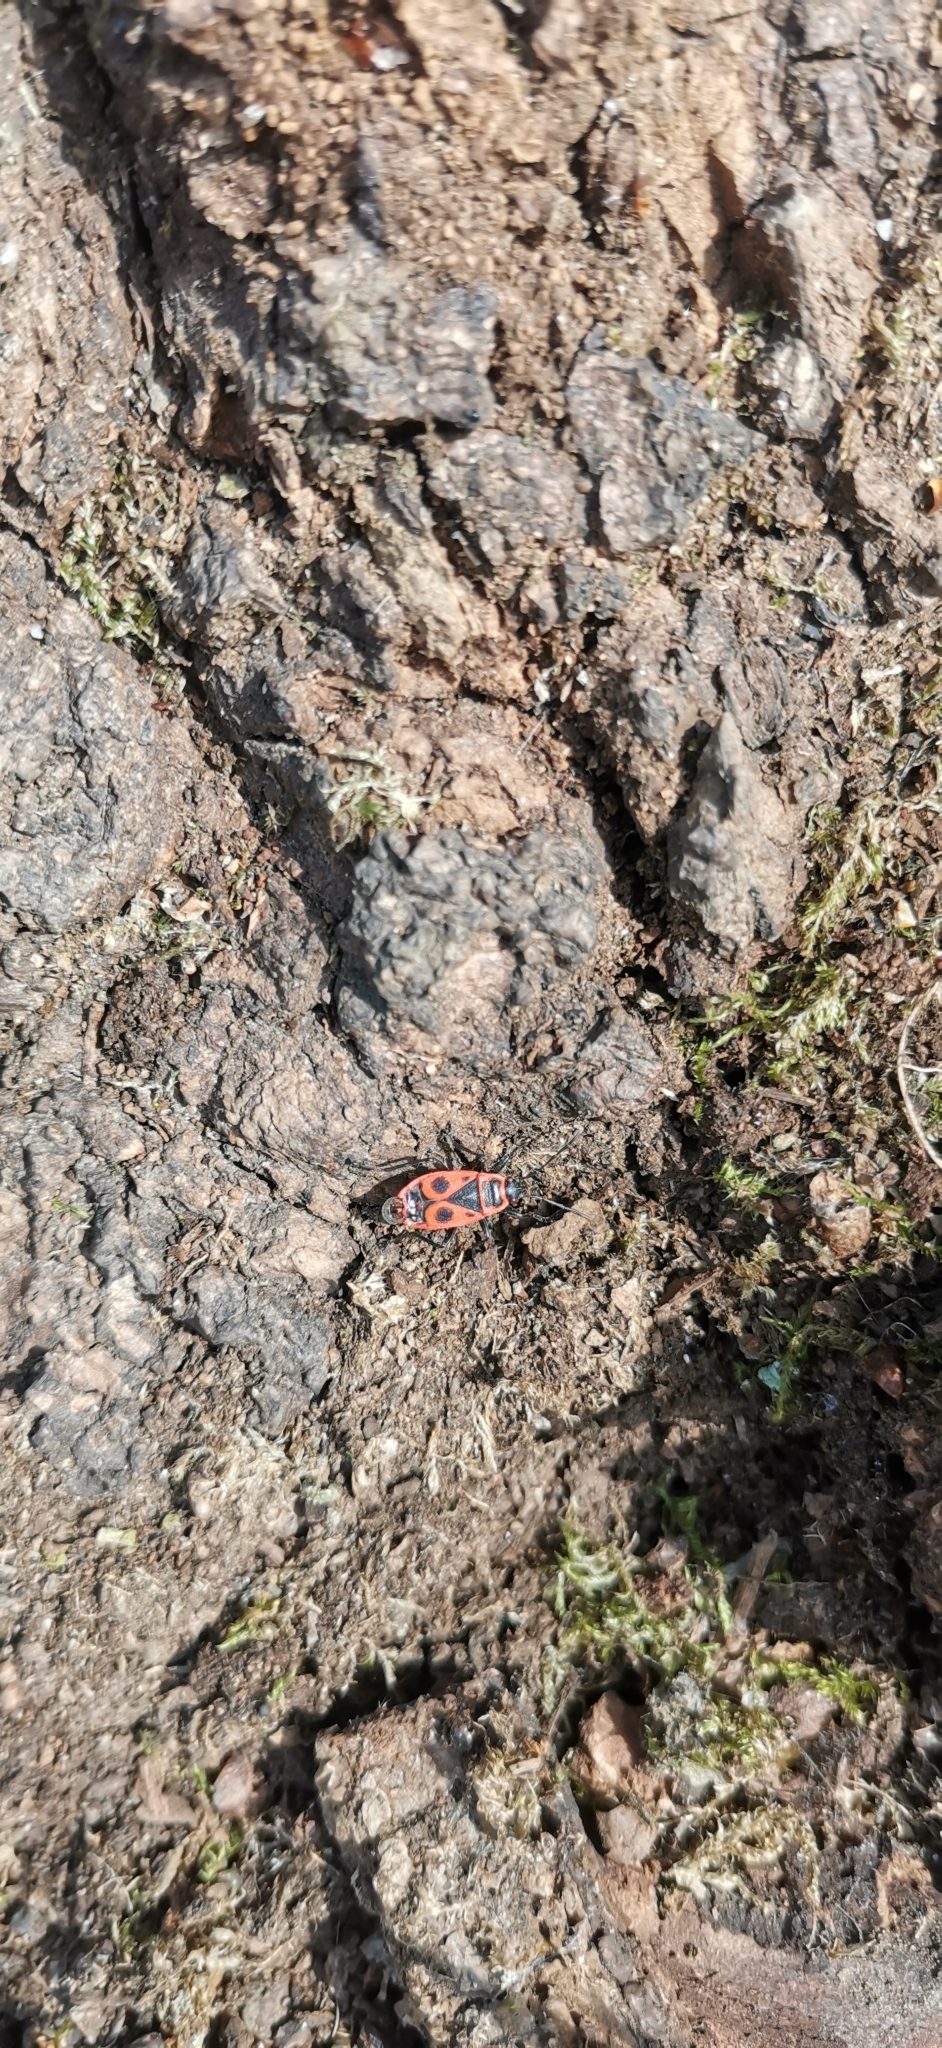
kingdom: Animalia
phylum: Arthropoda
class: Insecta
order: Hemiptera
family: Pyrrhocoridae
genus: Pyrrhocoris
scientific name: Pyrrhocoris apterus
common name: Firebug
